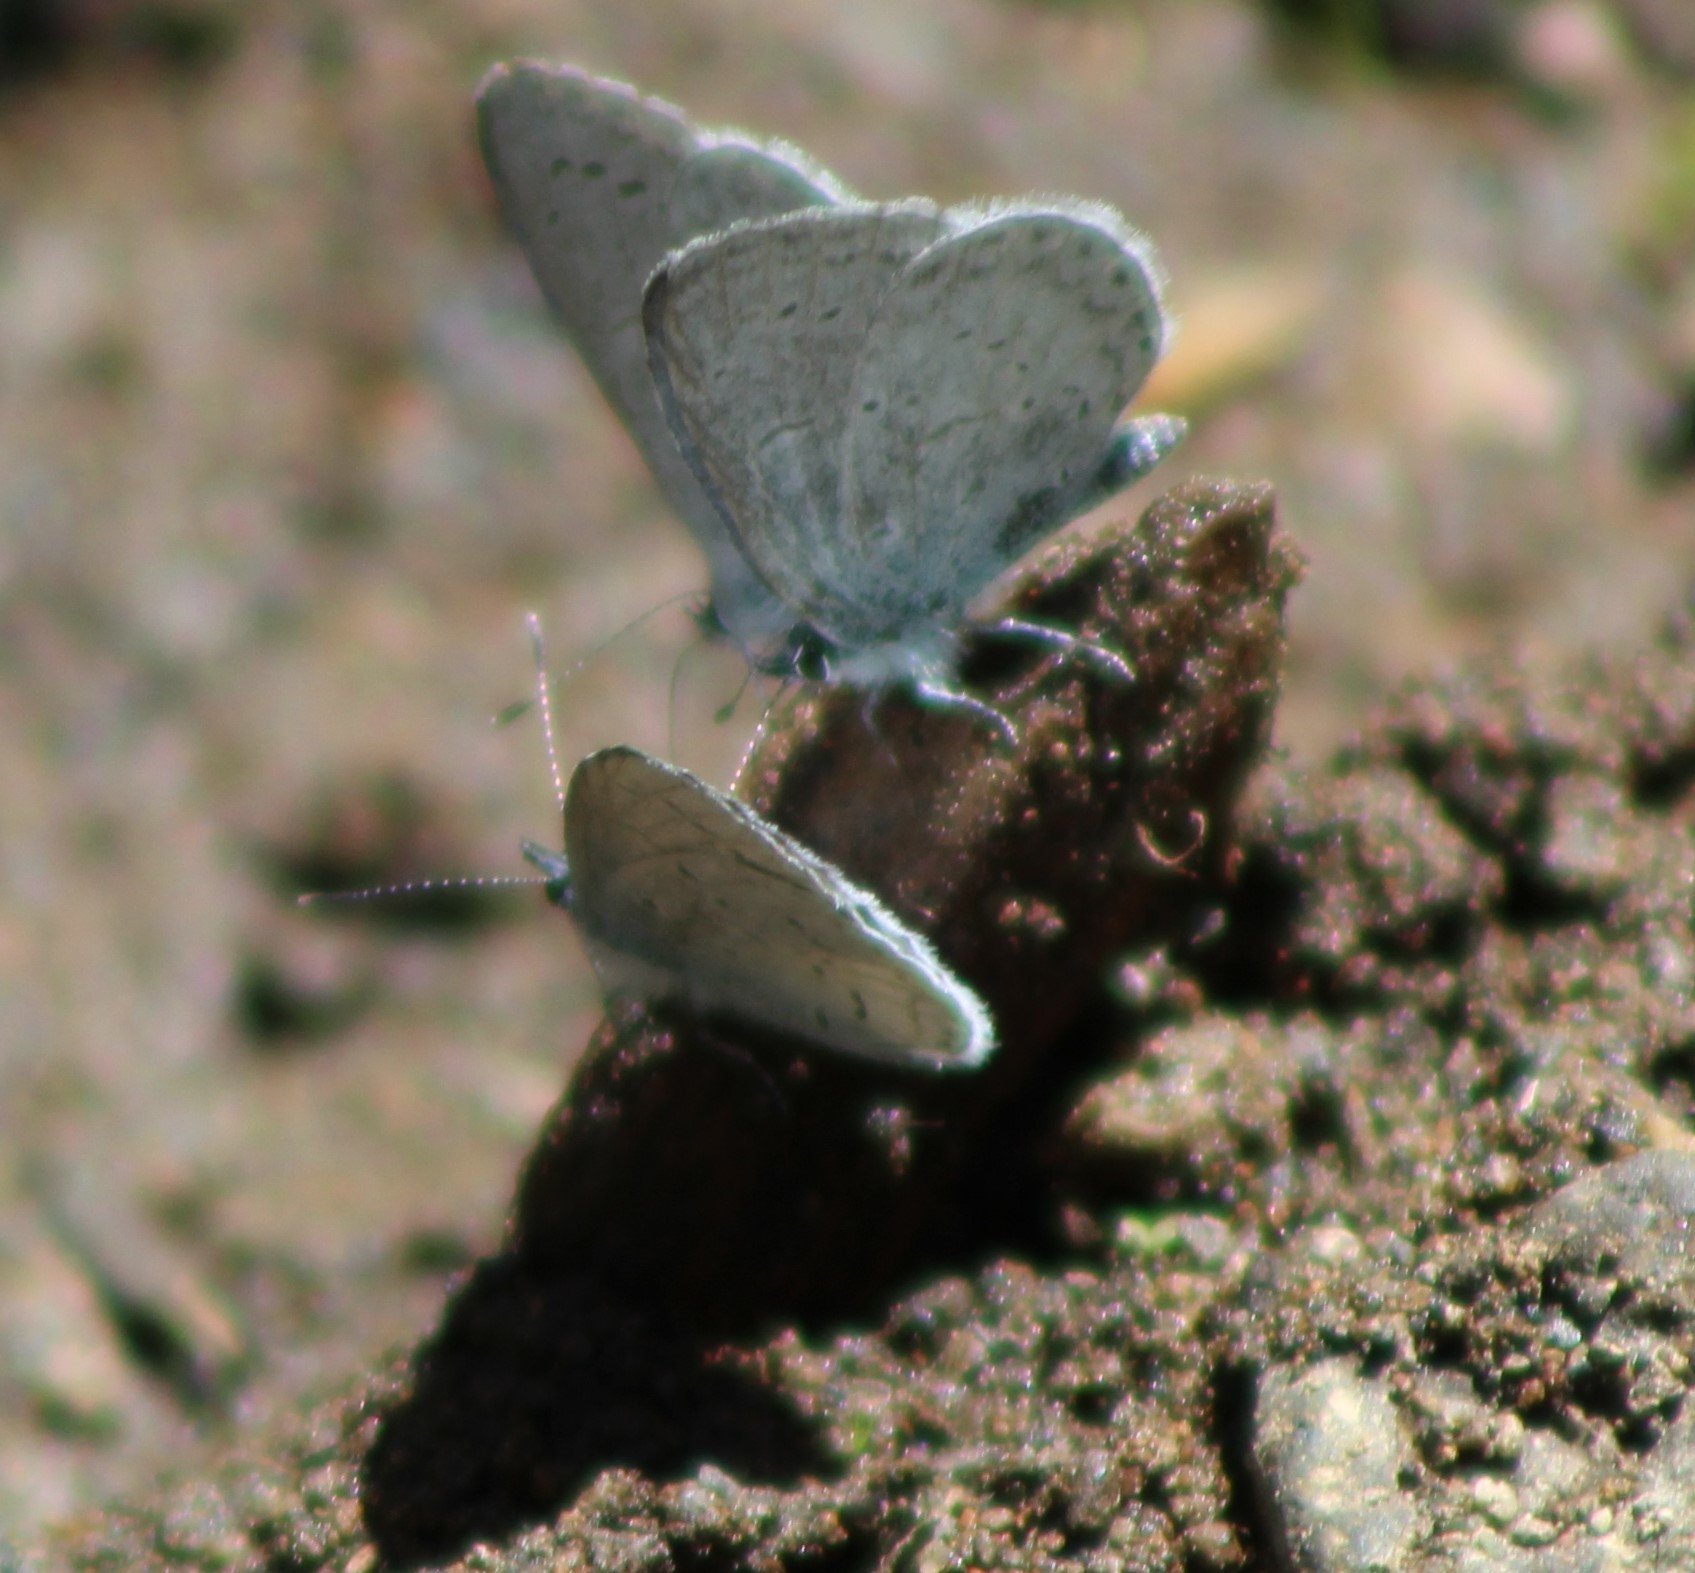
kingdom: Animalia
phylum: Arthropoda
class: Insecta
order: Lepidoptera
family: Lycaenidae
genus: Celastrina
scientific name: Celastrina ladon
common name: Spring azure
